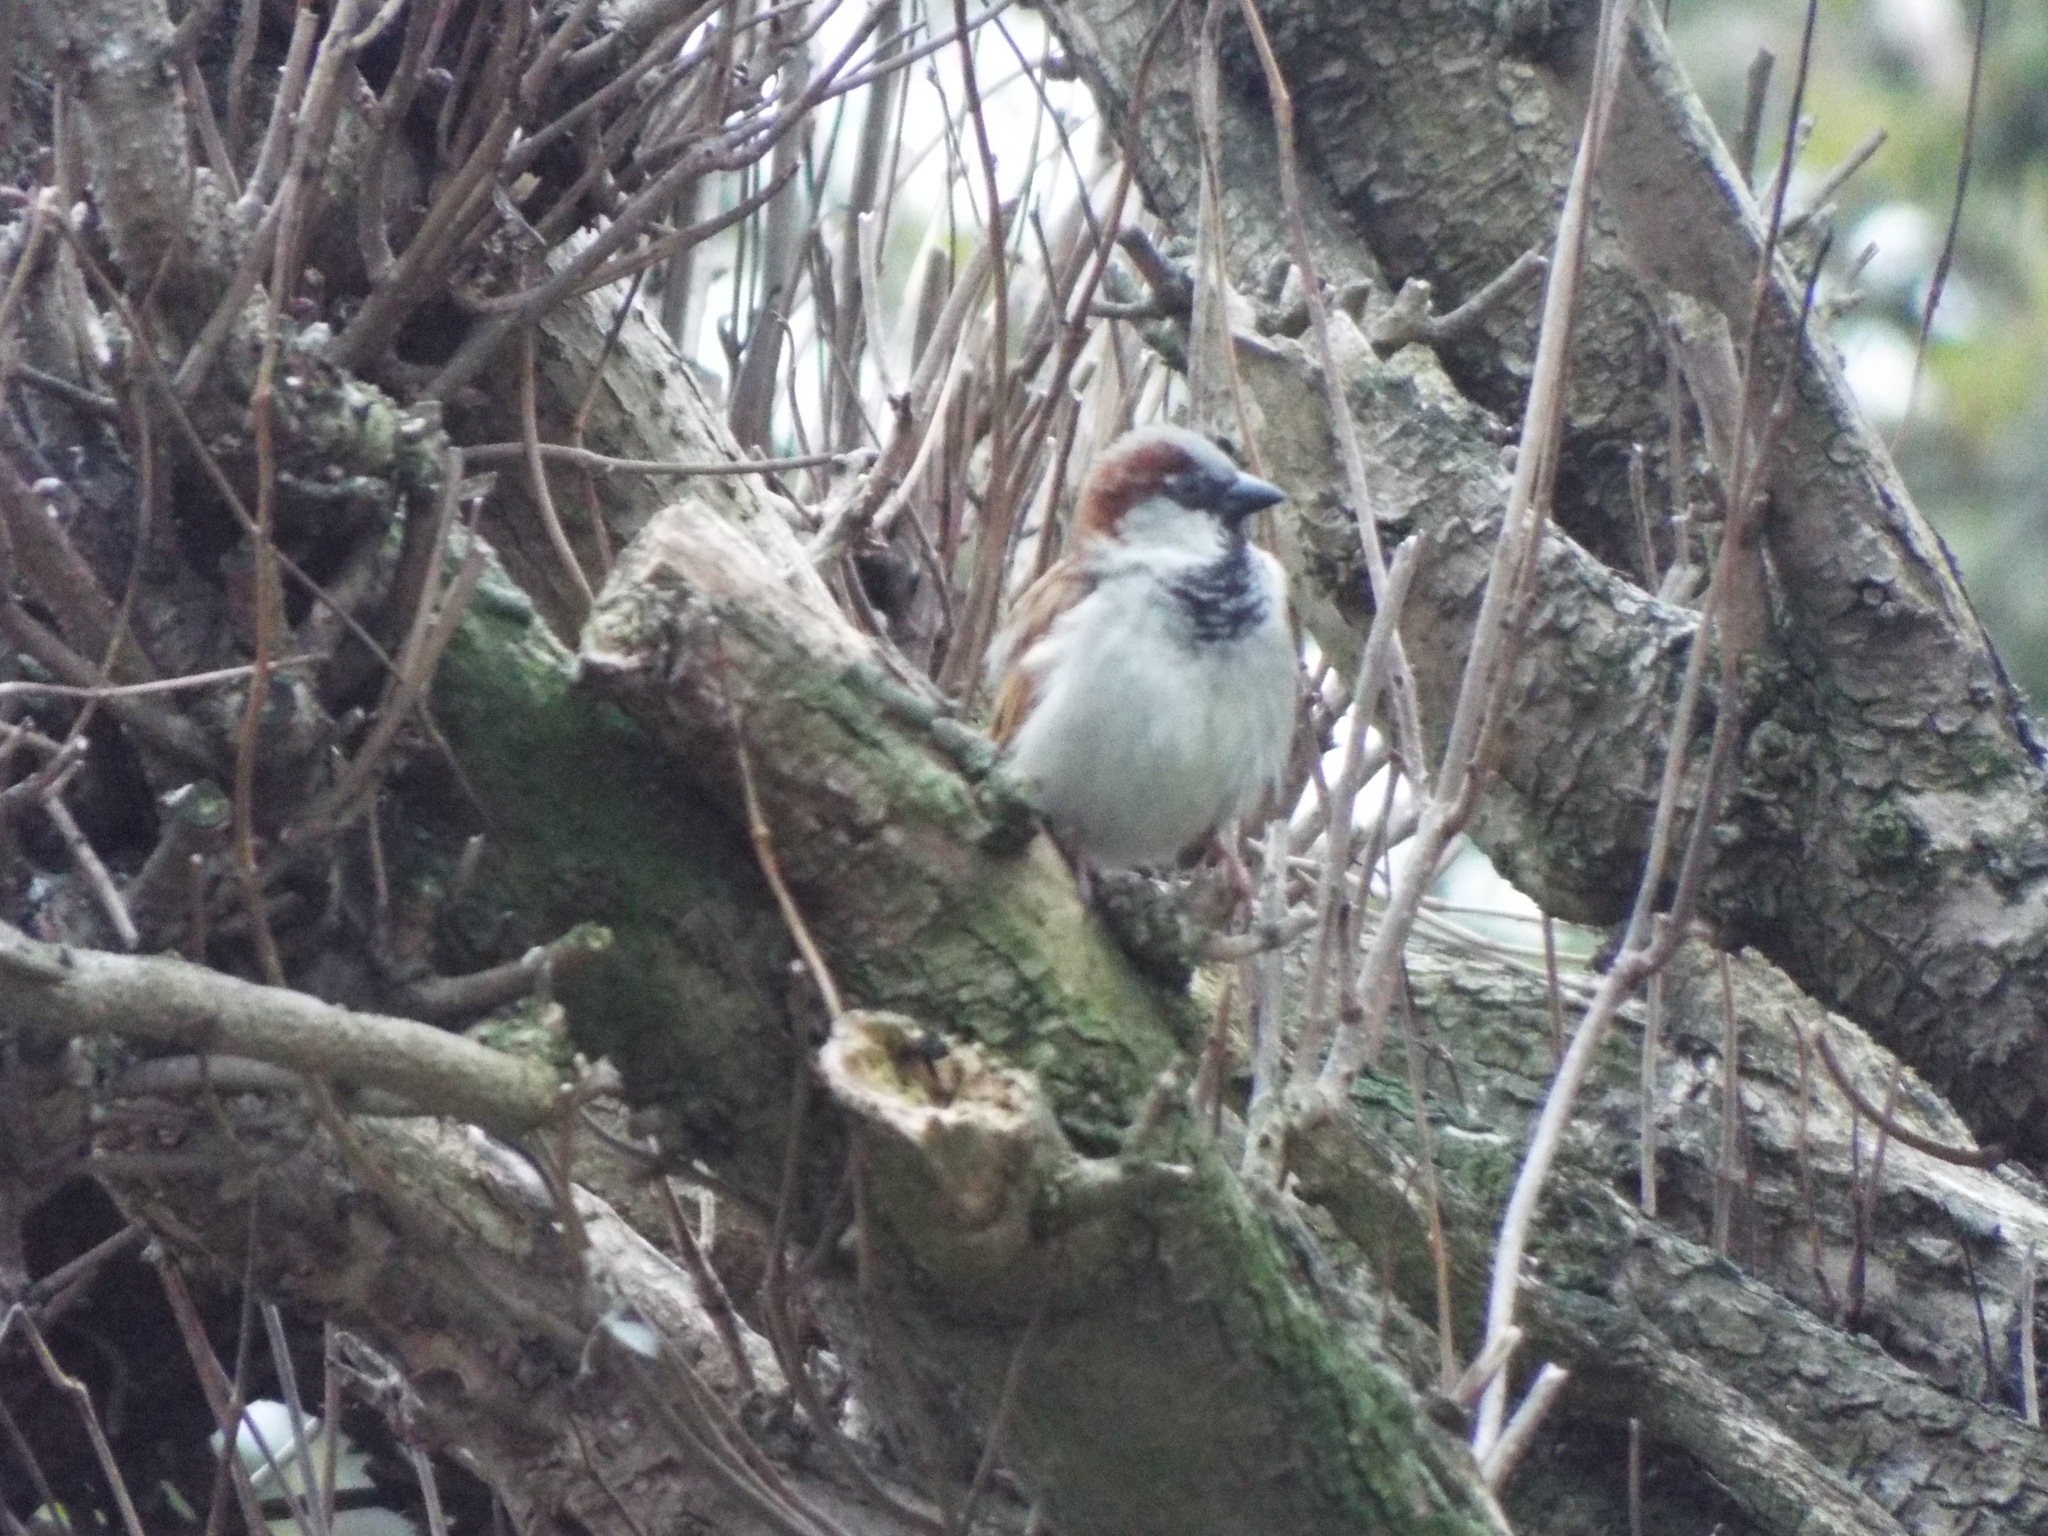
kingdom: Animalia
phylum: Chordata
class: Aves
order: Passeriformes
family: Passeridae
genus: Passer
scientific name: Passer domesticus
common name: House sparrow
